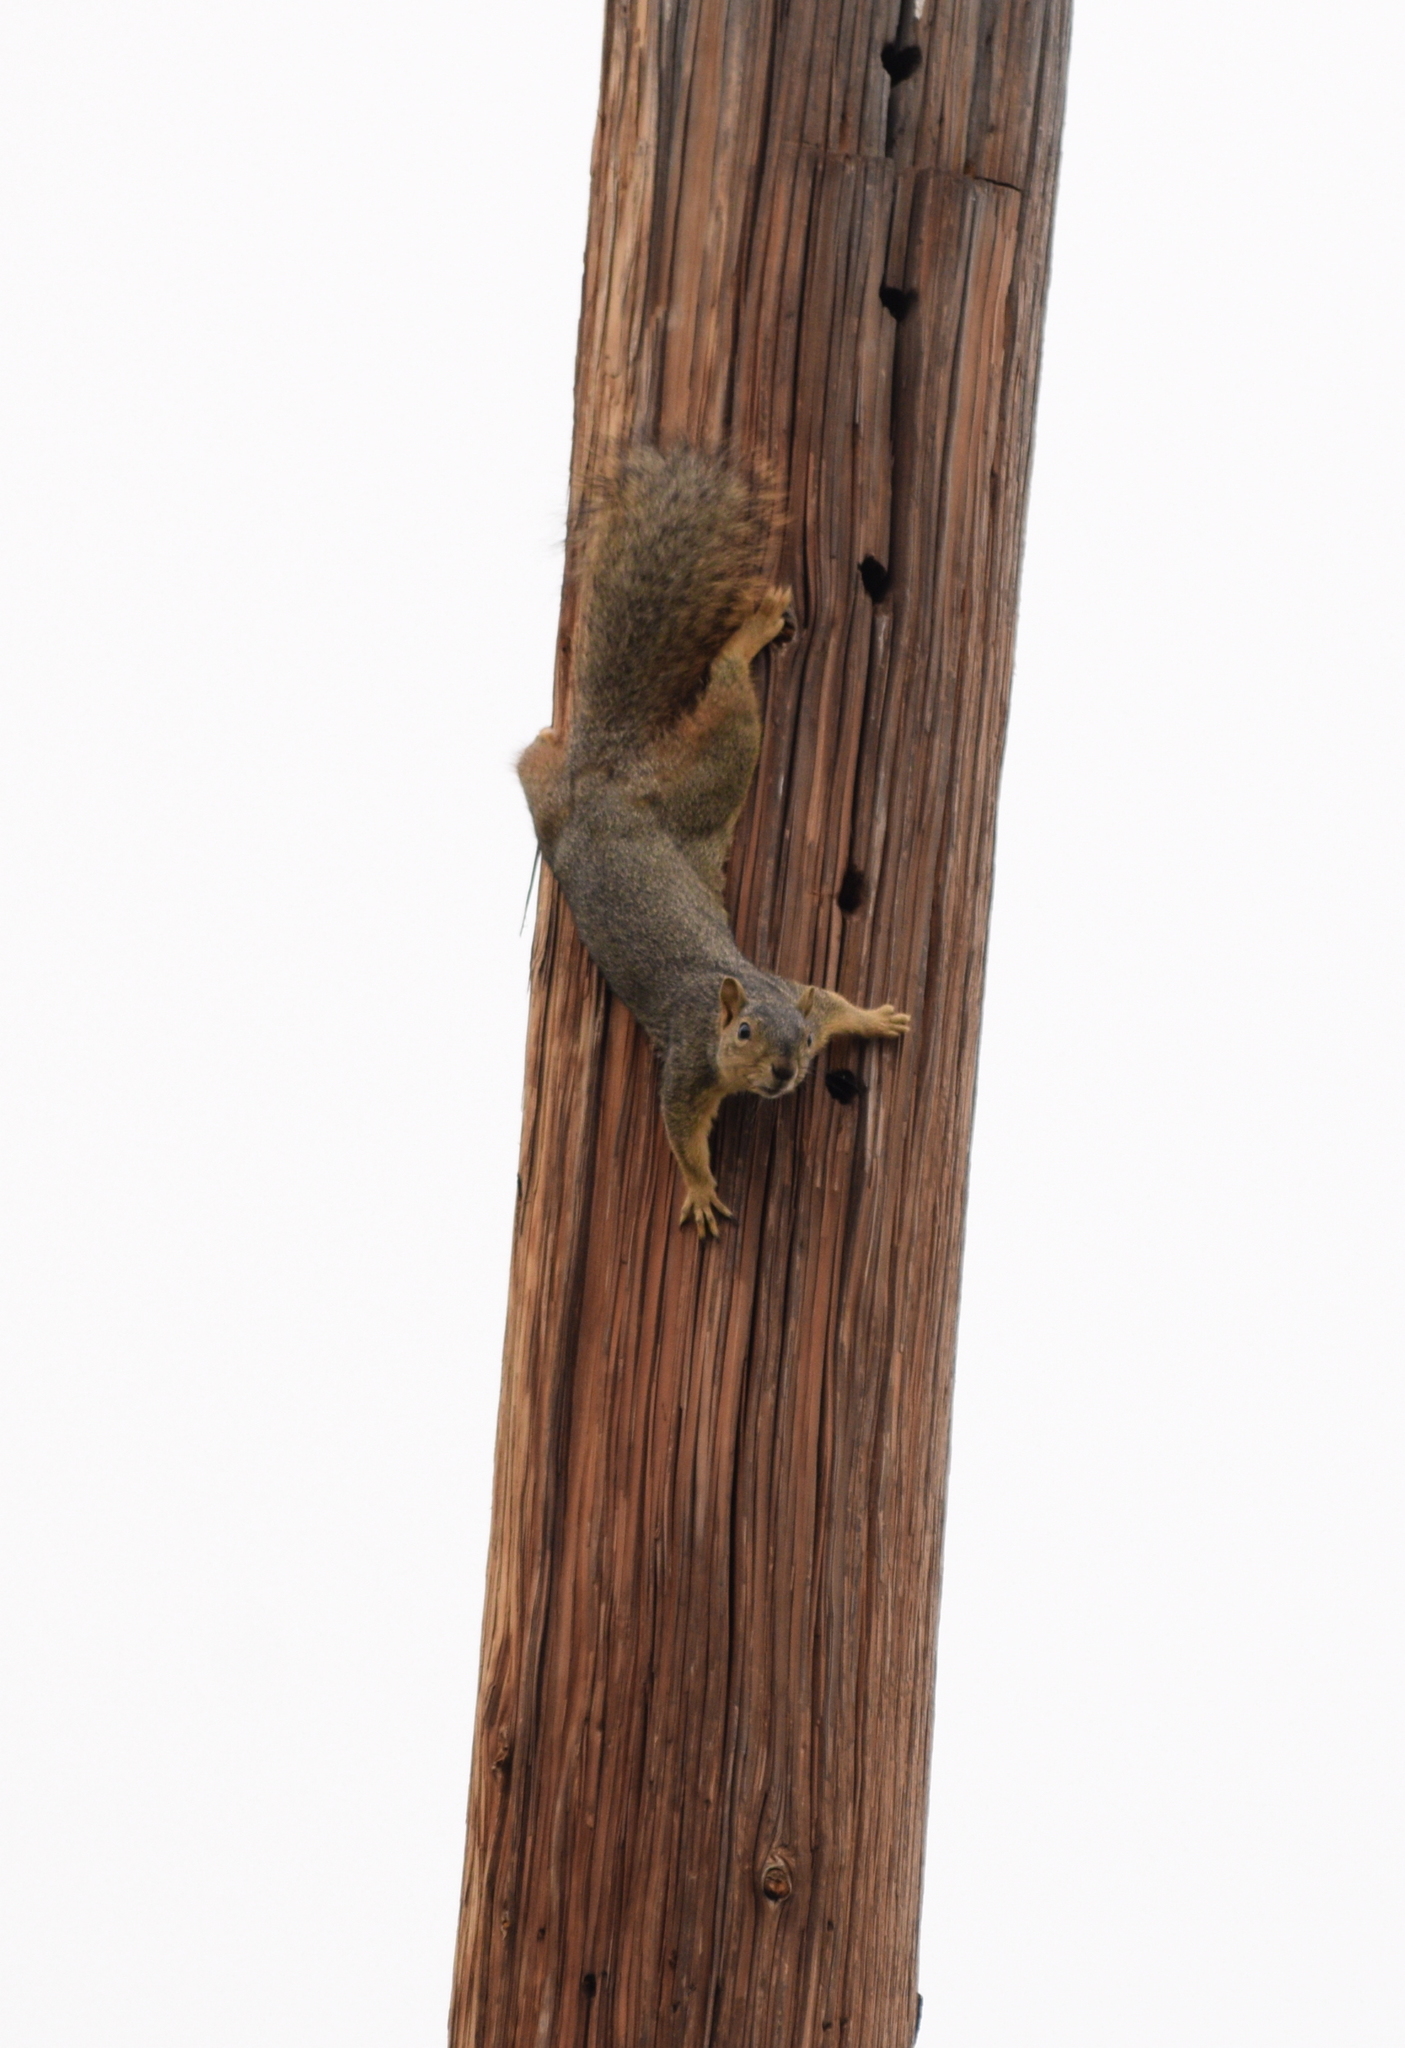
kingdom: Animalia
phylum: Chordata
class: Mammalia
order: Rodentia
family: Sciuridae
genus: Sciurus
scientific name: Sciurus niger
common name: Fox squirrel
